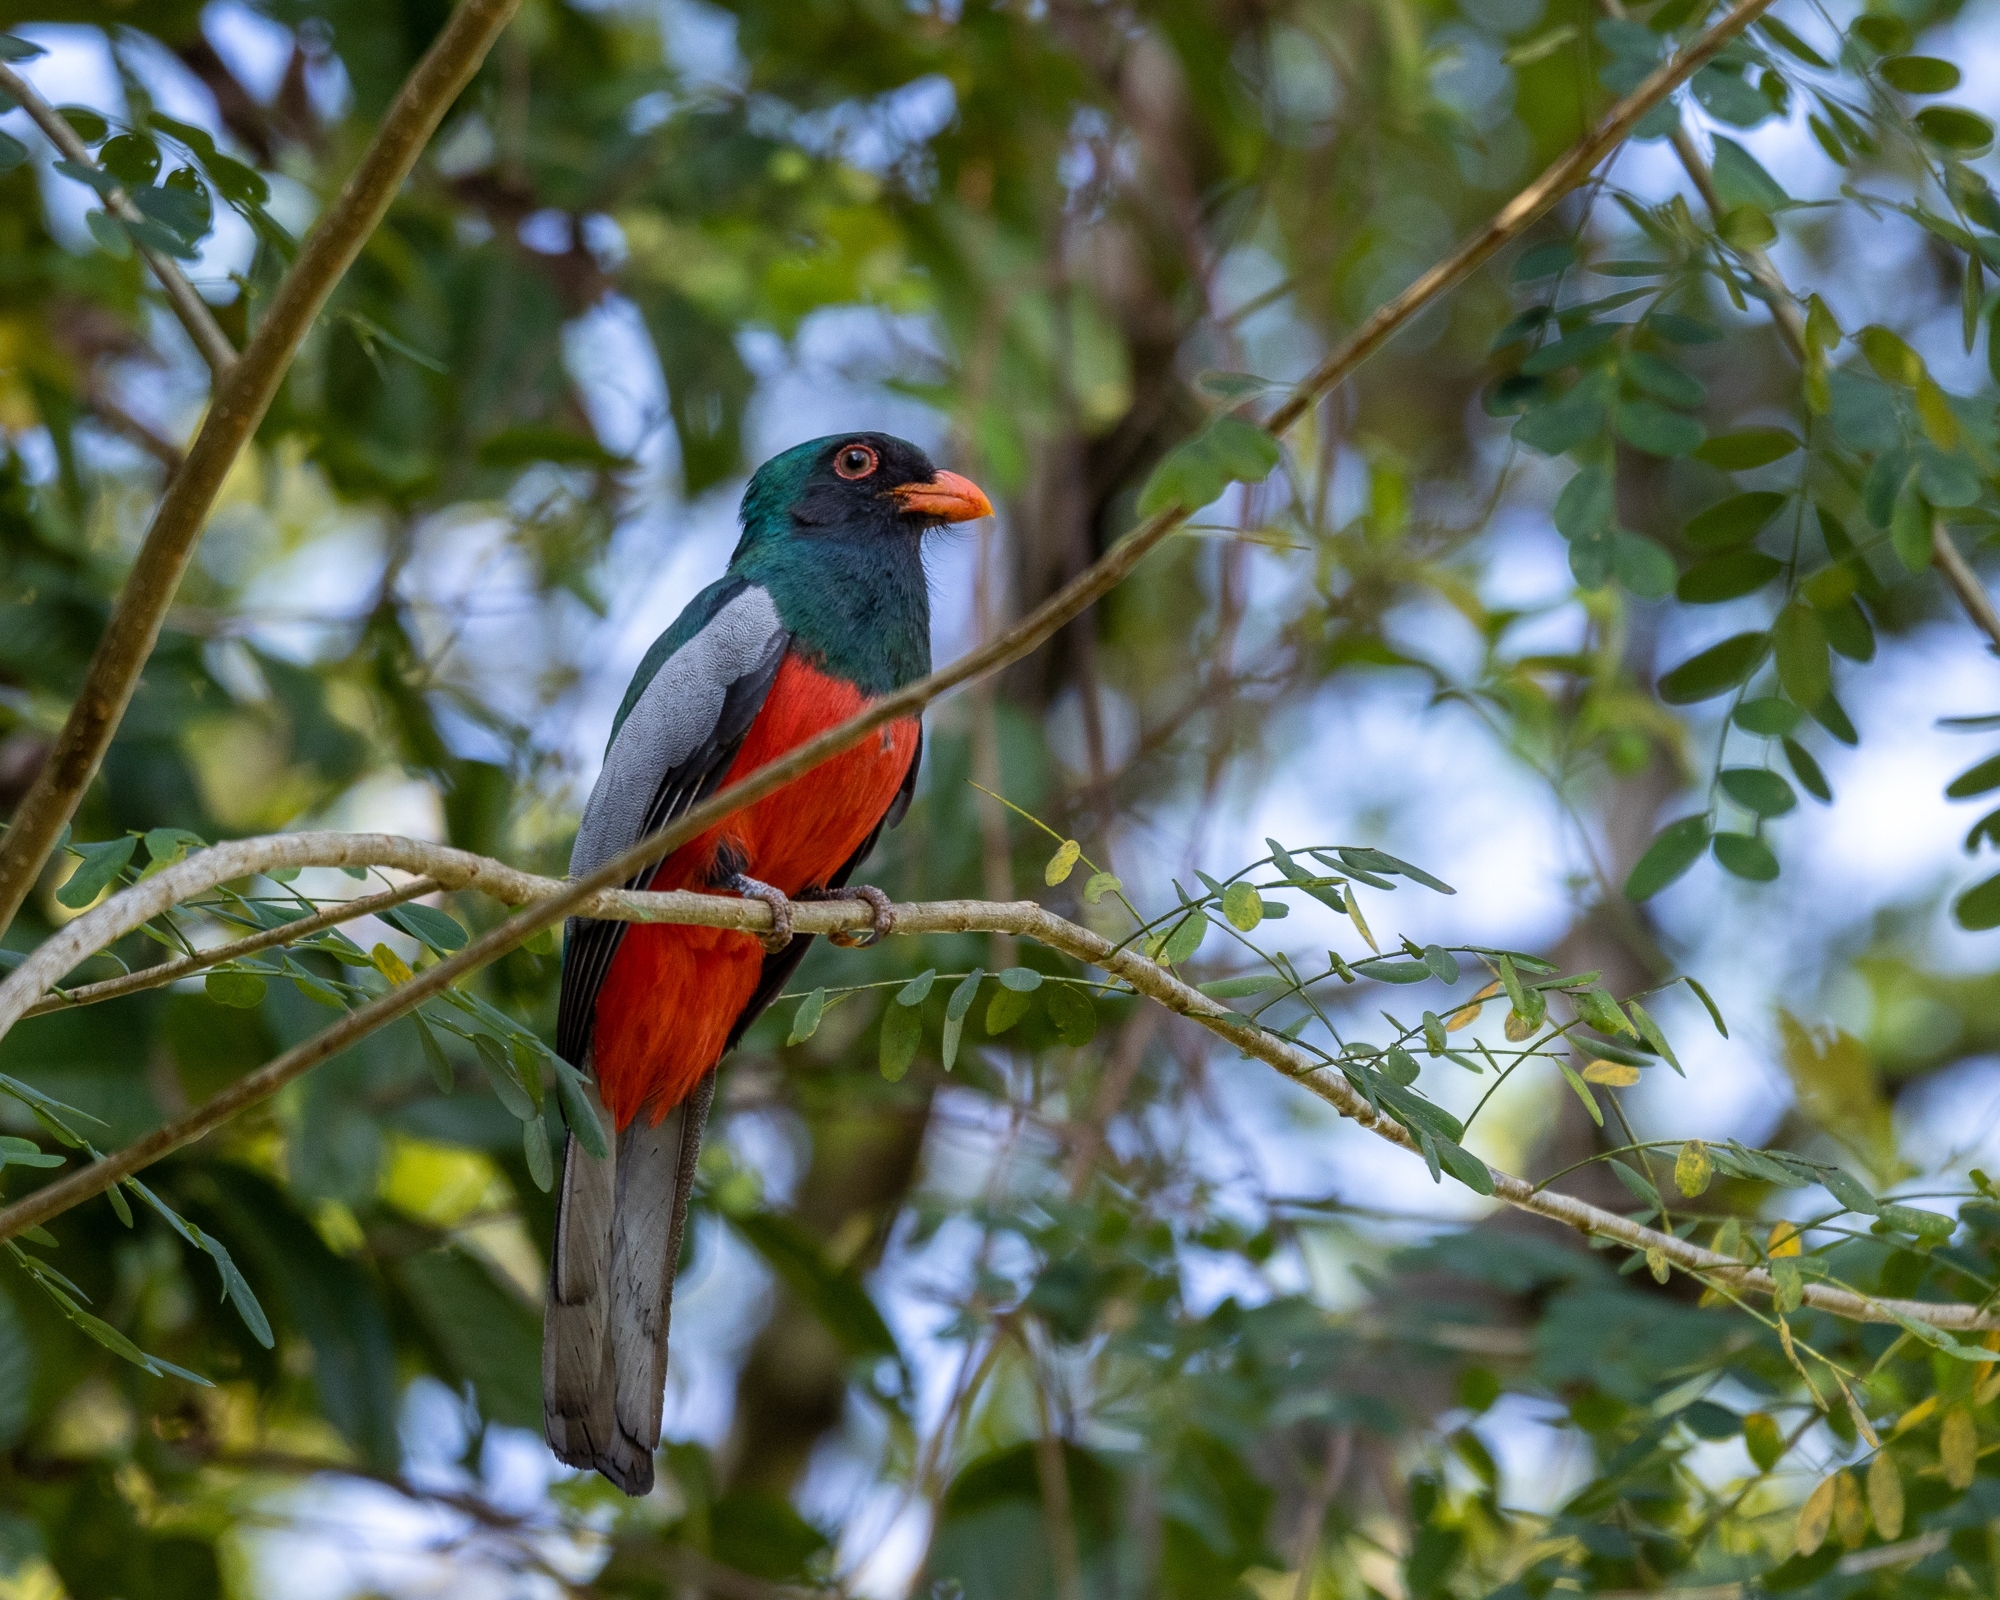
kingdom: Animalia
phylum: Chordata
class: Aves
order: Trogoniformes
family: Trogonidae
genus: Trogon
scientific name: Trogon massena
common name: Slaty-tailed trogon
